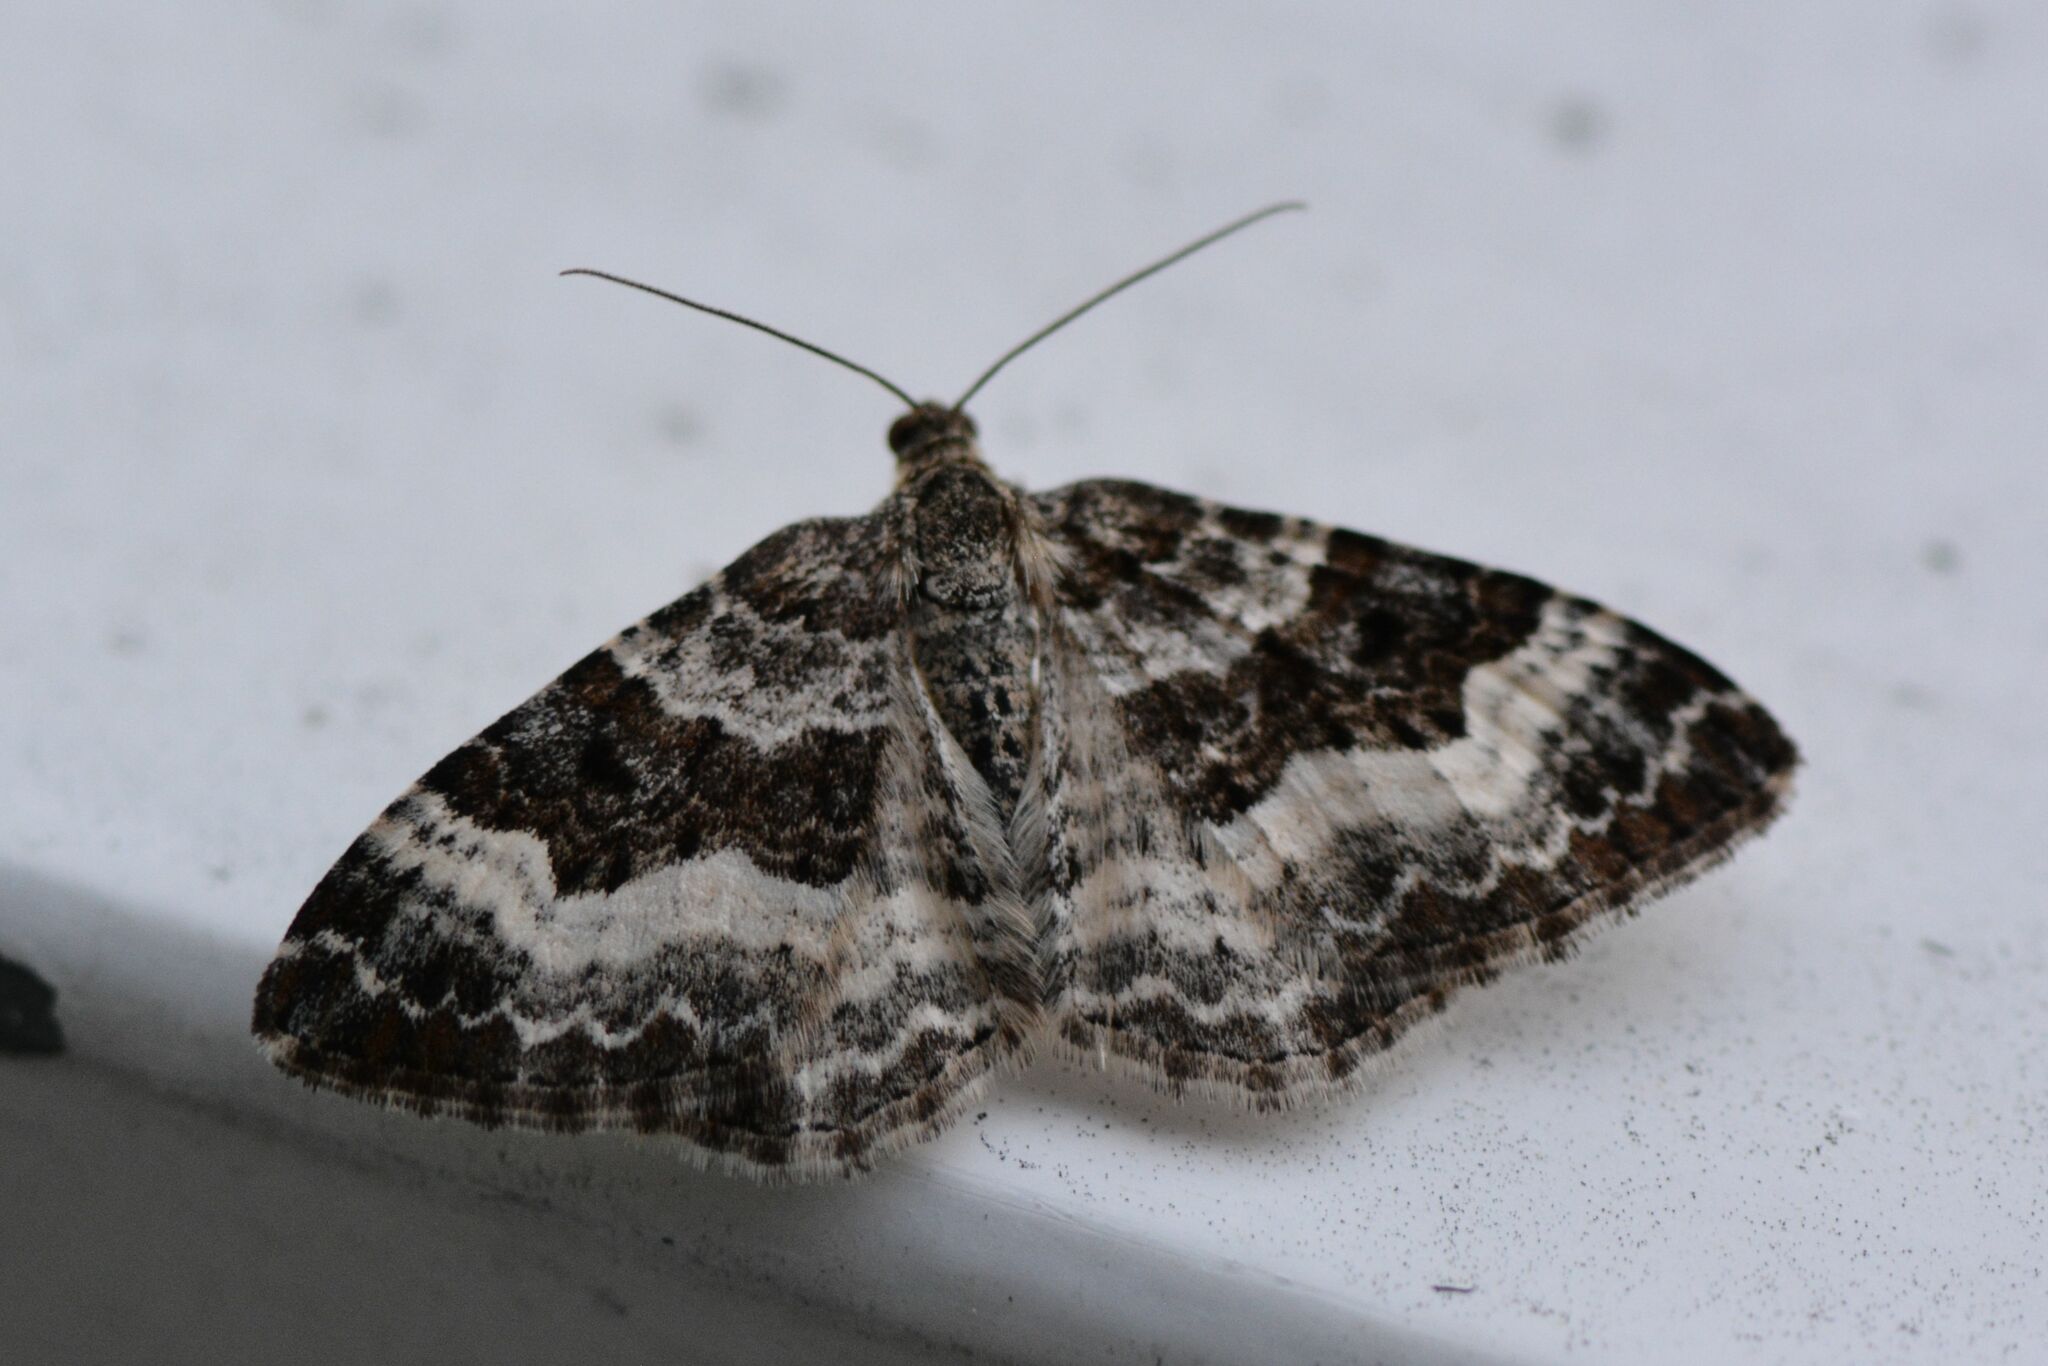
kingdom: Animalia
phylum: Arthropoda
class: Insecta
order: Lepidoptera
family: Geometridae
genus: Epirrhoe
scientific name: Epirrhoe alternata
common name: Common carpet
